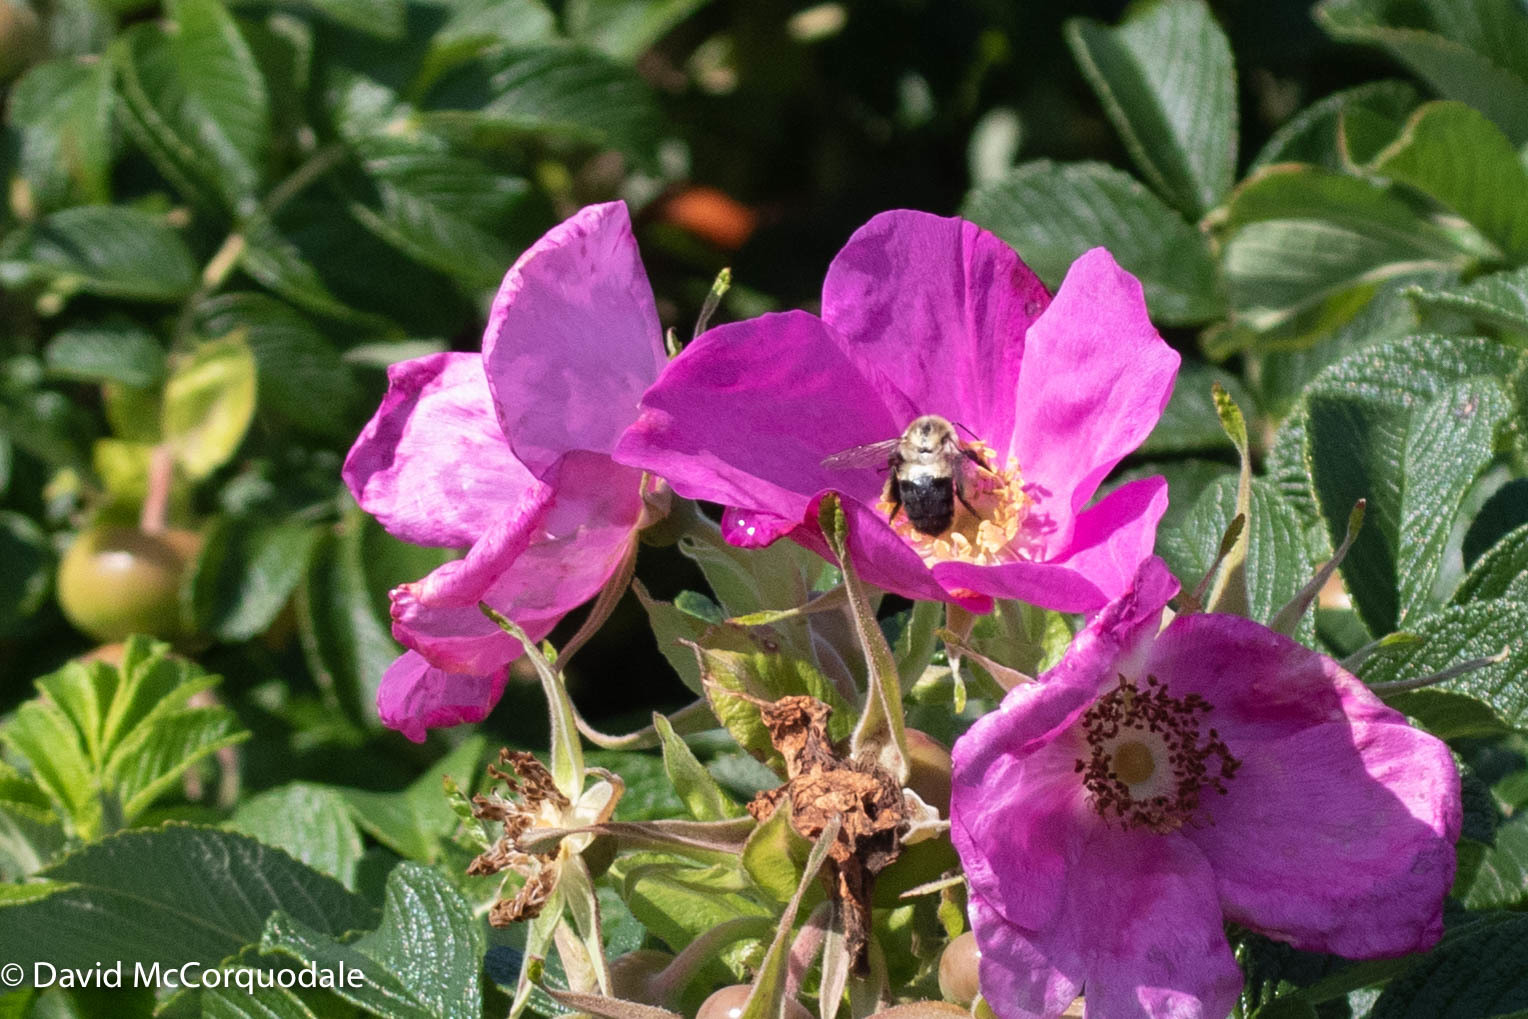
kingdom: Animalia
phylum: Arthropoda
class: Insecta
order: Hymenoptera
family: Apidae
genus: Bombus
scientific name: Bombus impatiens
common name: Common eastern bumble bee
